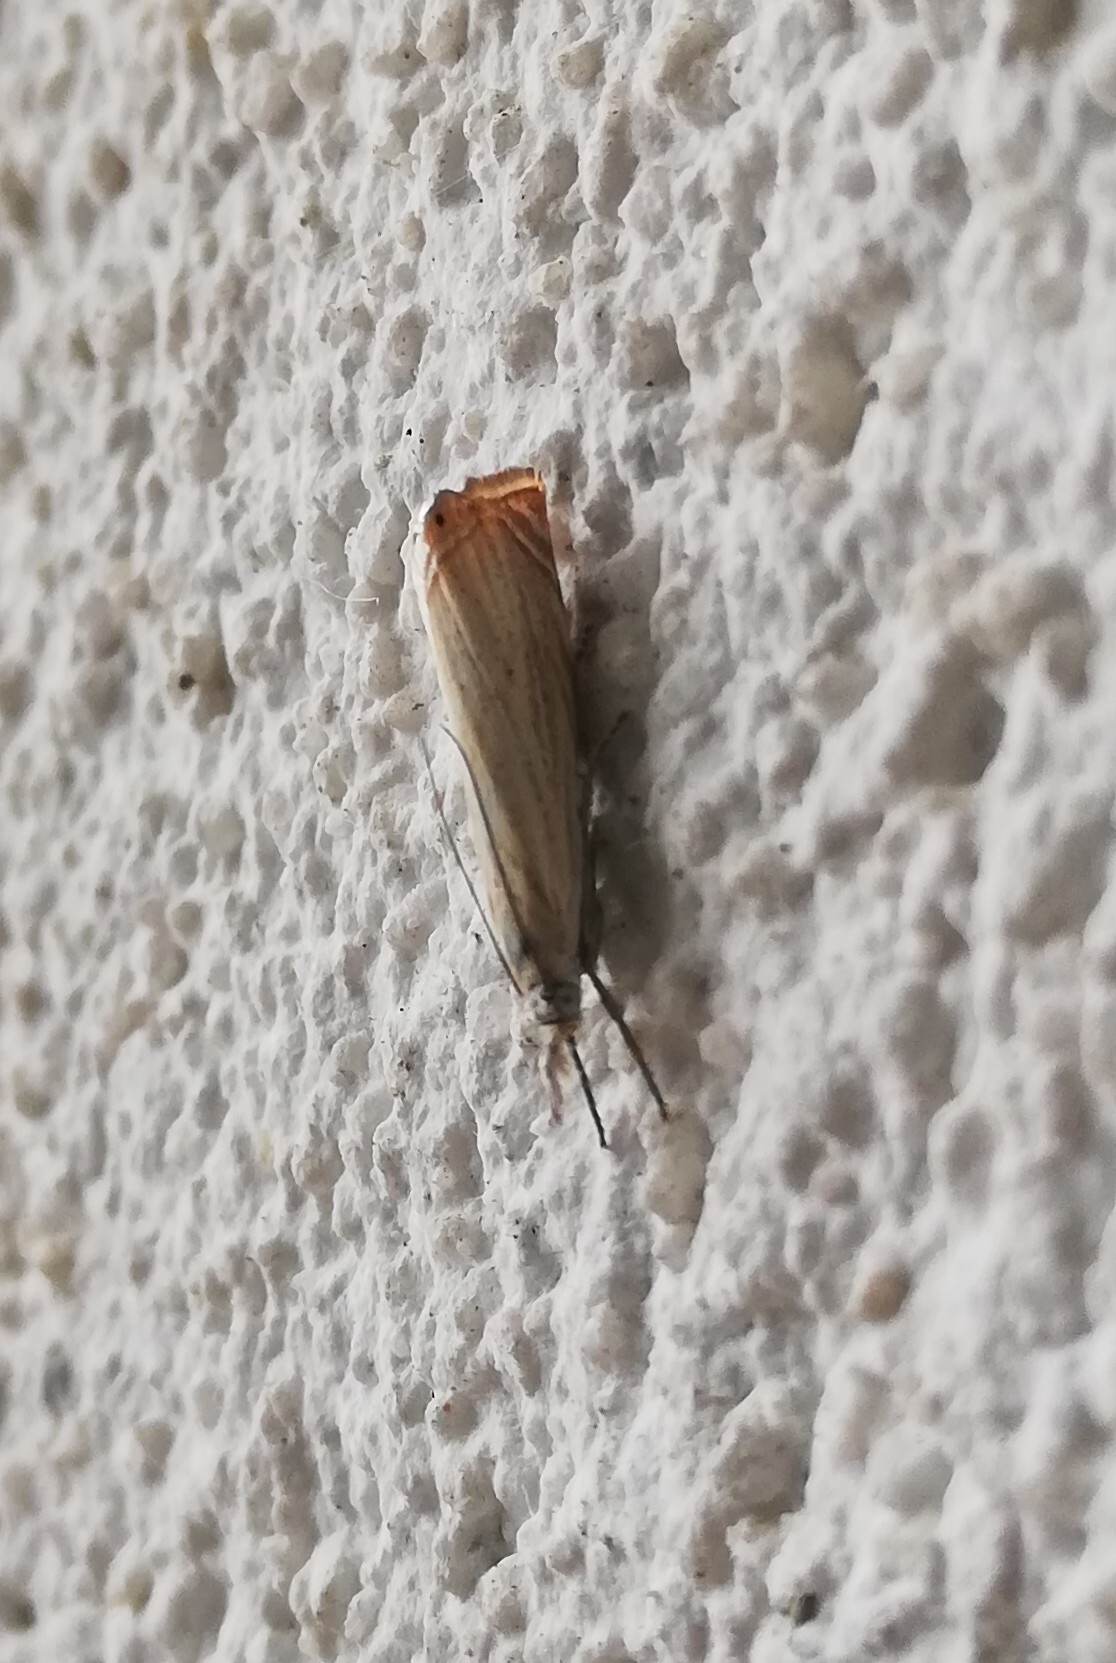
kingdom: Animalia
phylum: Arthropoda
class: Insecta
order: Lepidoptera
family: Crambidae
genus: Chrysoteuchia
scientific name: Chrysoteuchia culmella
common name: Garden grass-veneer
